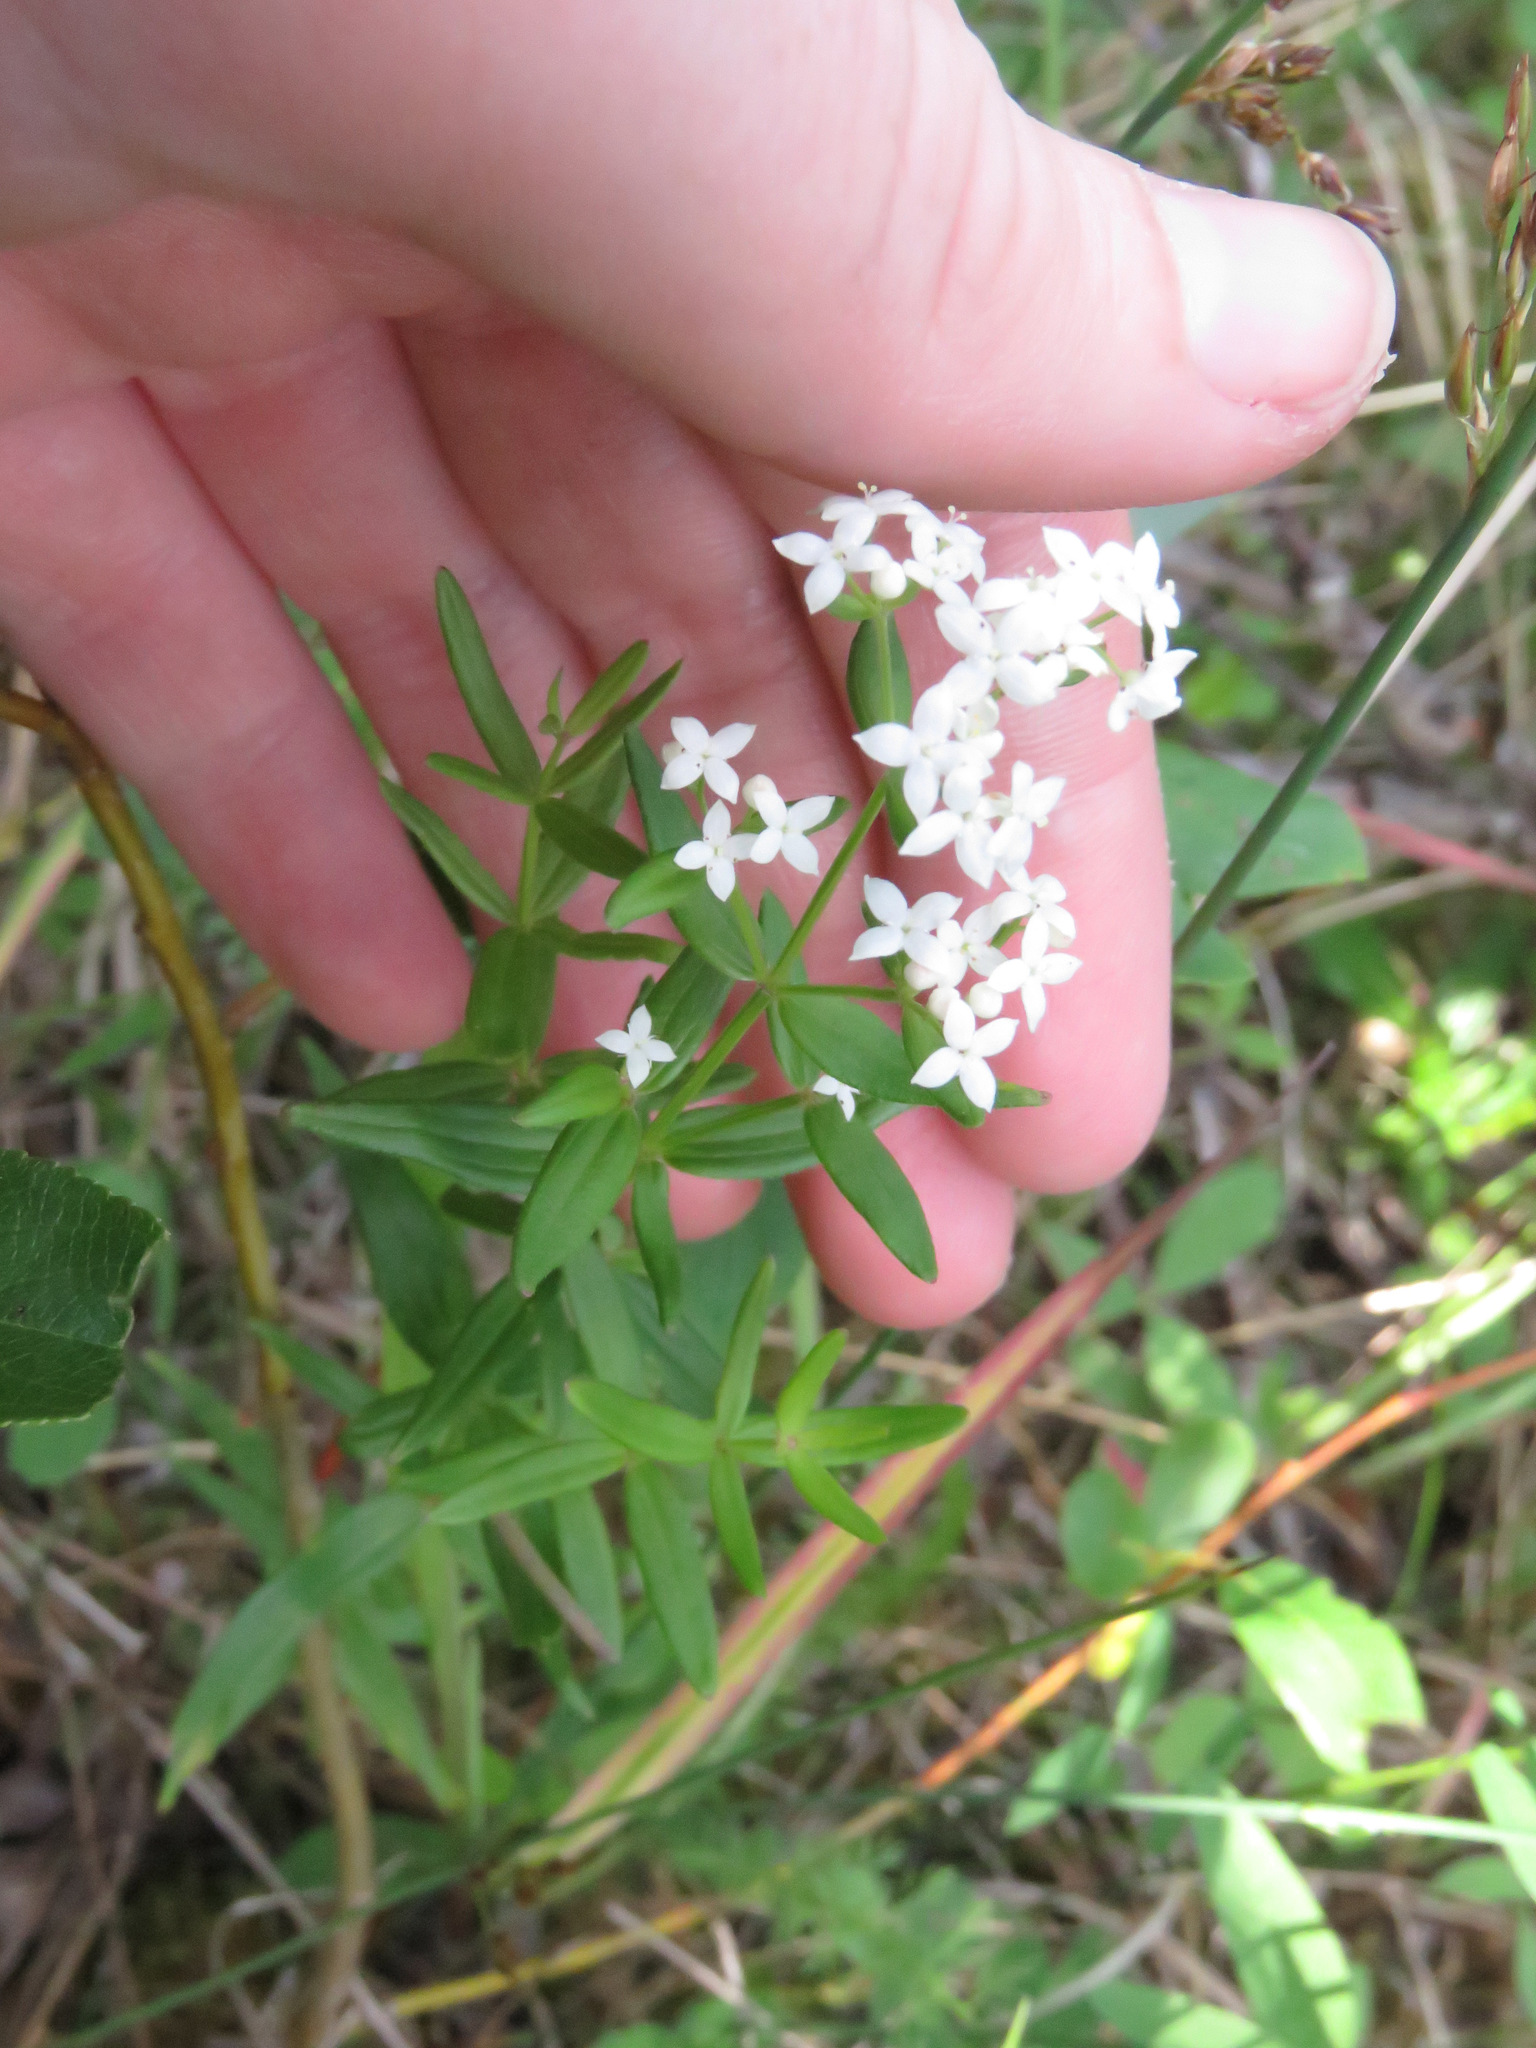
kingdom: Plantae
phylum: Tracheophyta
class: Magnoliopsida
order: Gentianales
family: Rubiaceae
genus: Galium
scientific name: Galium boreale
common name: Northern bedstraw
